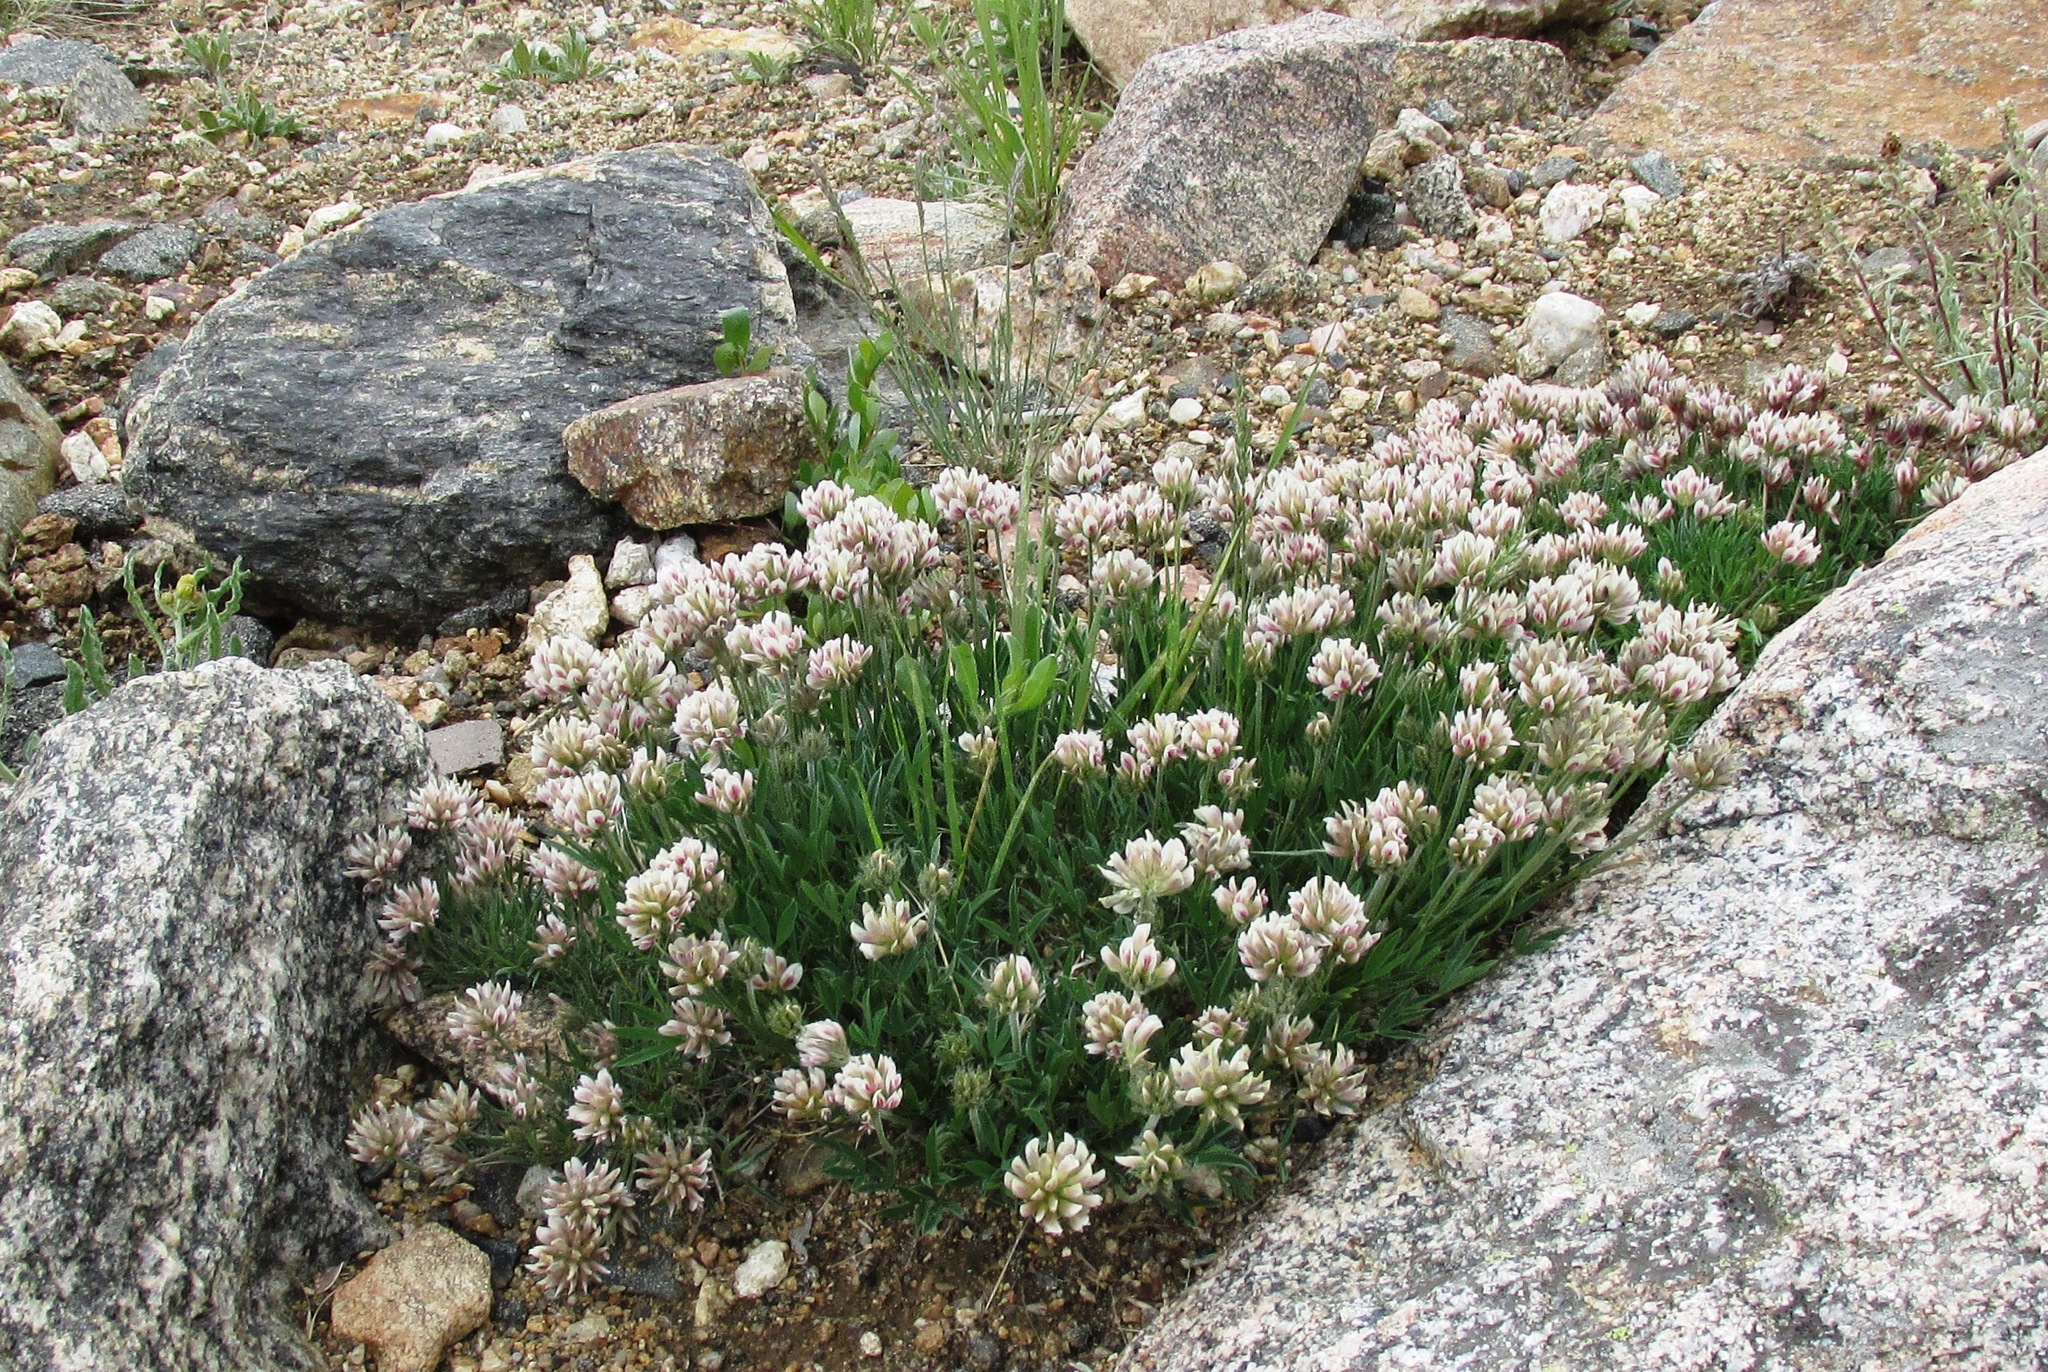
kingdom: Plantae
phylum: Tracheophyta
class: Magnoliopsida
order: Fabales
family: Fabaceae
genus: Trifolium
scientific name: Trifolium dasyphyllum
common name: Whip-root clover
